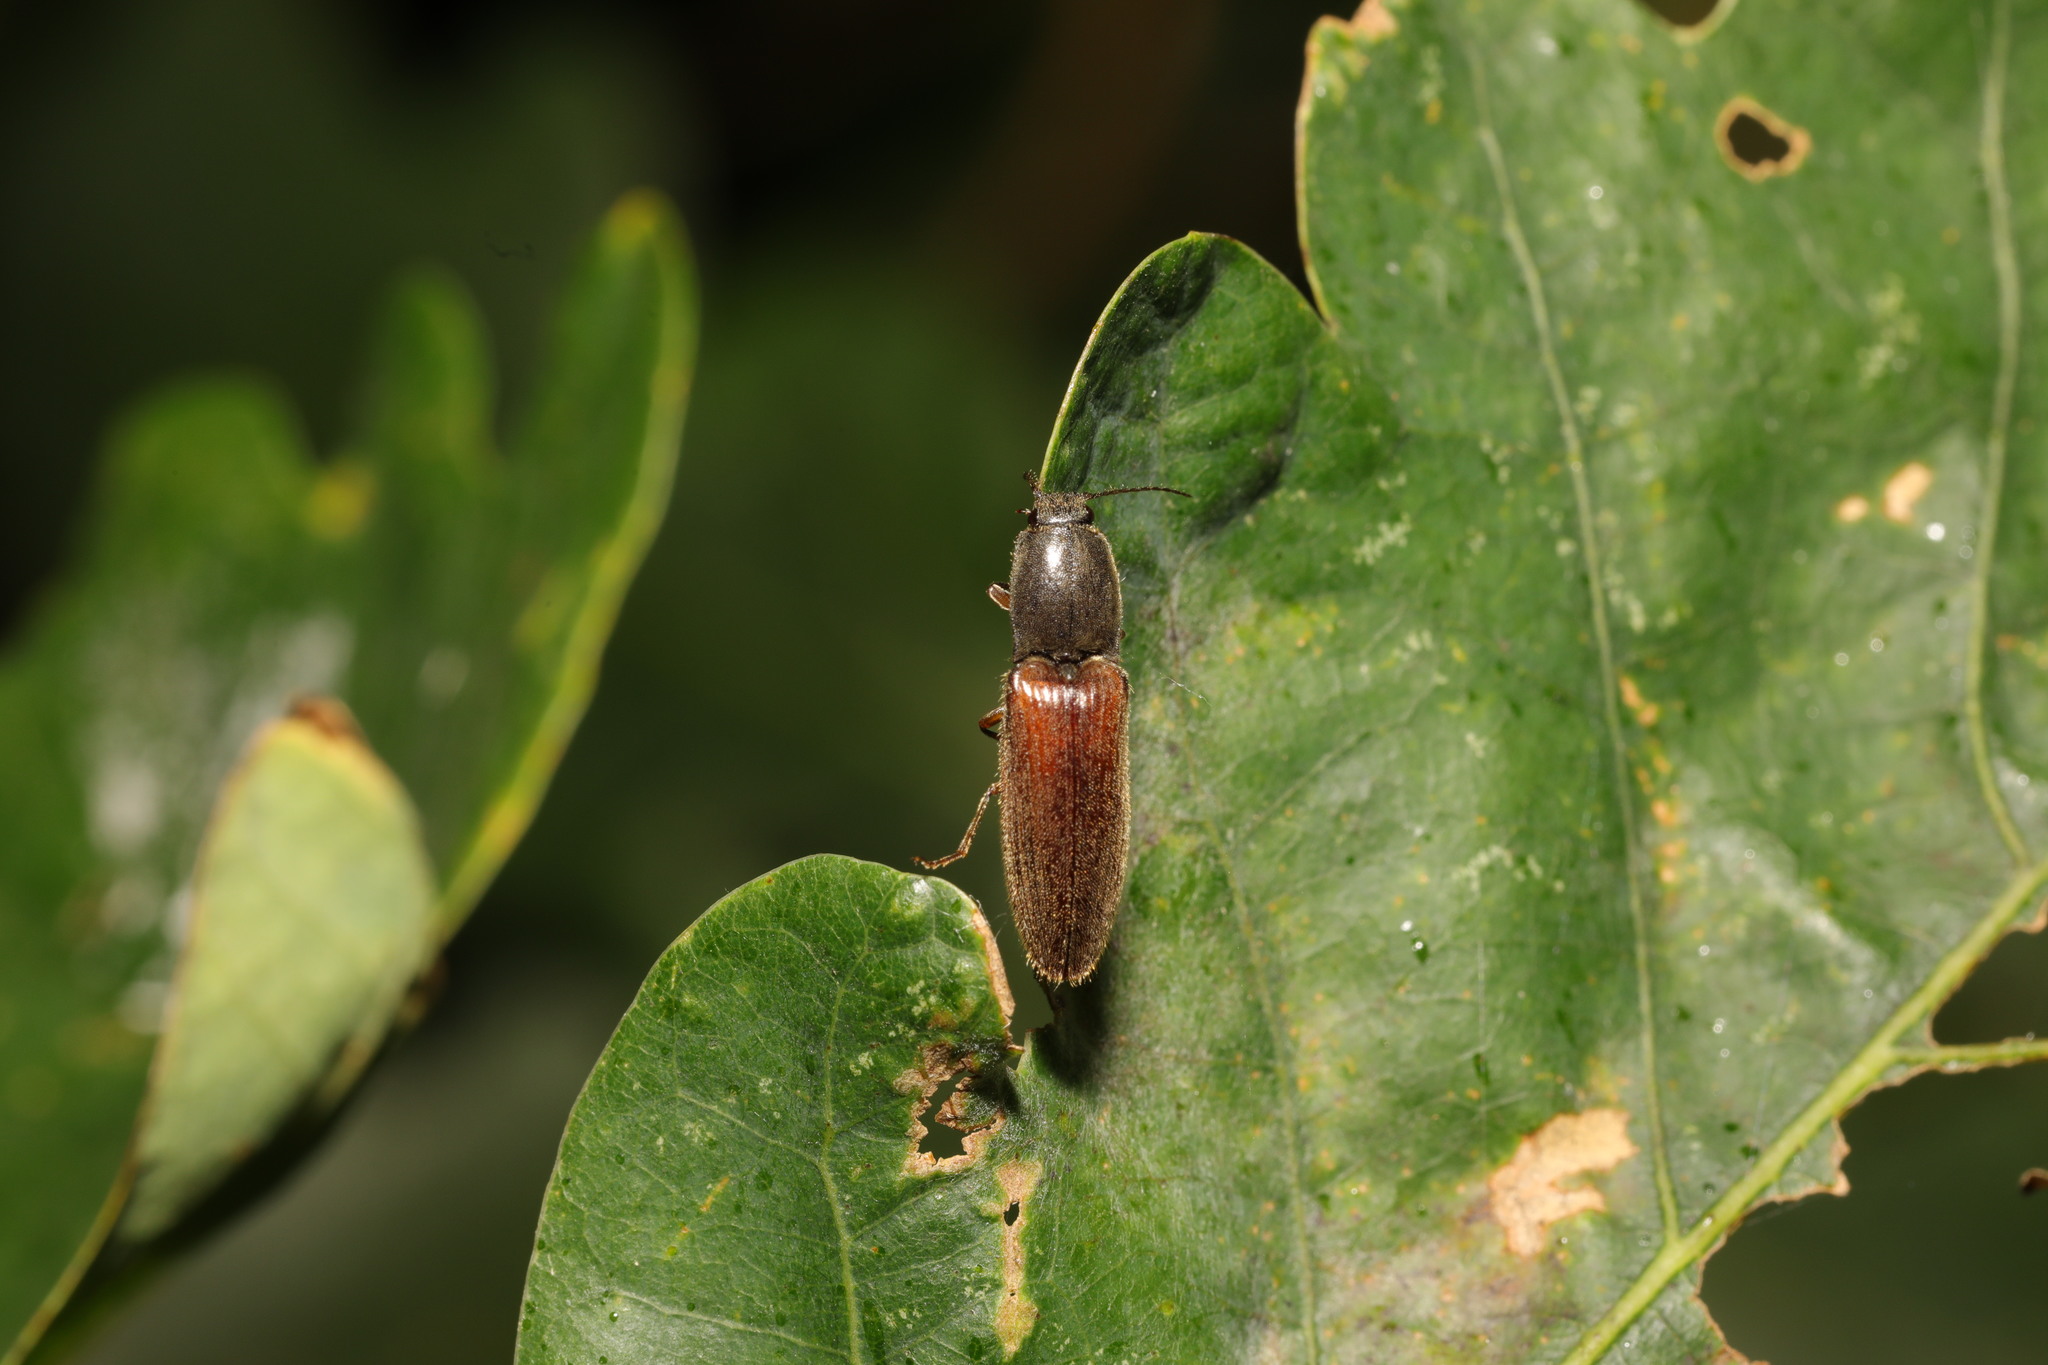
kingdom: Animalia
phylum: Arthropoda
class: Insecta
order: Coleoptera
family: Elateridae
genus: Athous
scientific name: Athous haemorrhoidalis
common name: Red-brown click beetle
